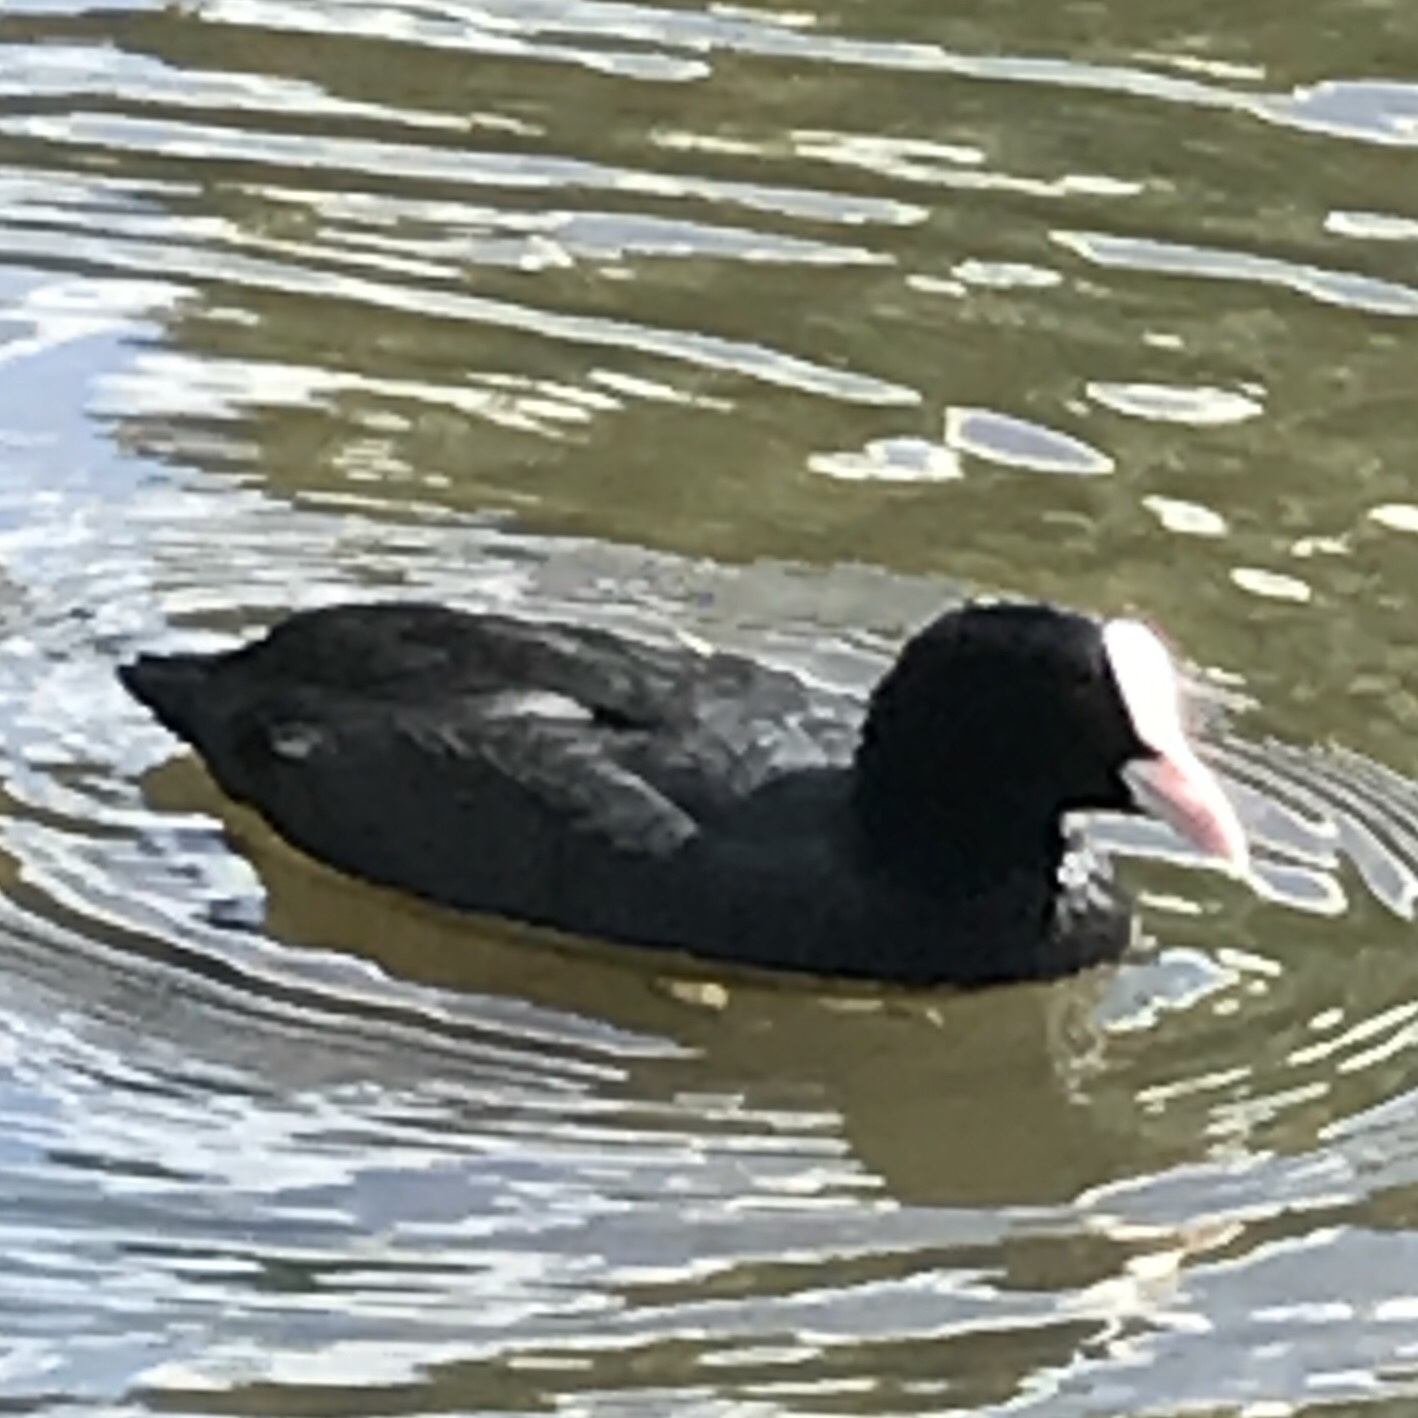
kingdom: Animalia
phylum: Chordata
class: Aves
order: Gruiformes
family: Rallidae
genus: Fulica
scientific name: Fulica atra
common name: Eurasian coot
